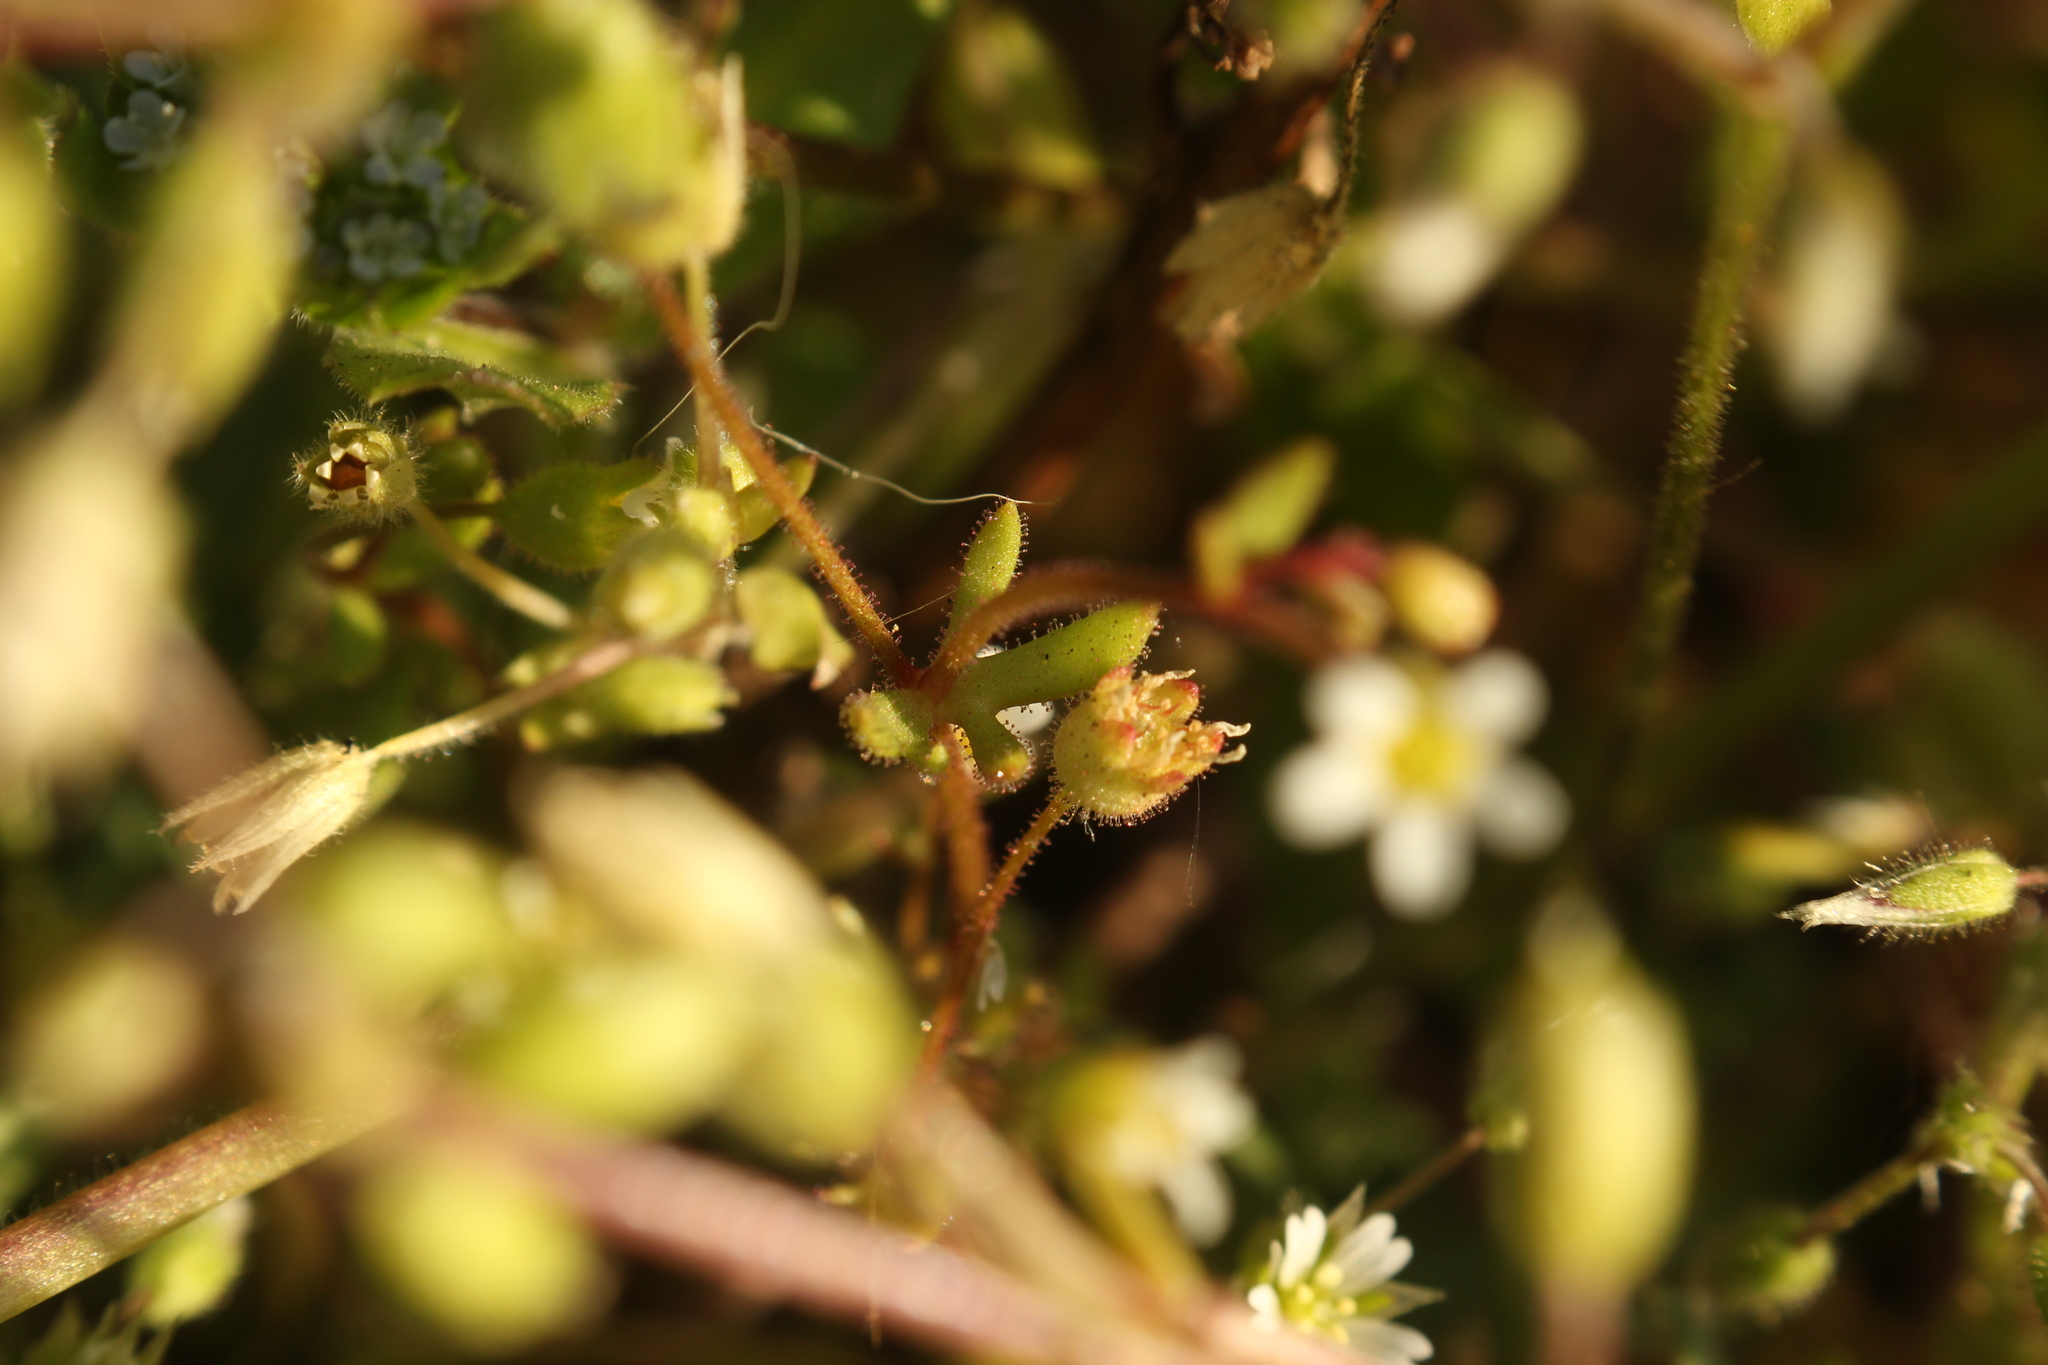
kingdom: Plantae
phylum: Tracheophyta
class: Magnoliopsida
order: Saxifragales
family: Saxifragaceae
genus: Saxifraga
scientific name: Saxifraga tridactylites
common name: Rue-leaved saxifrage
